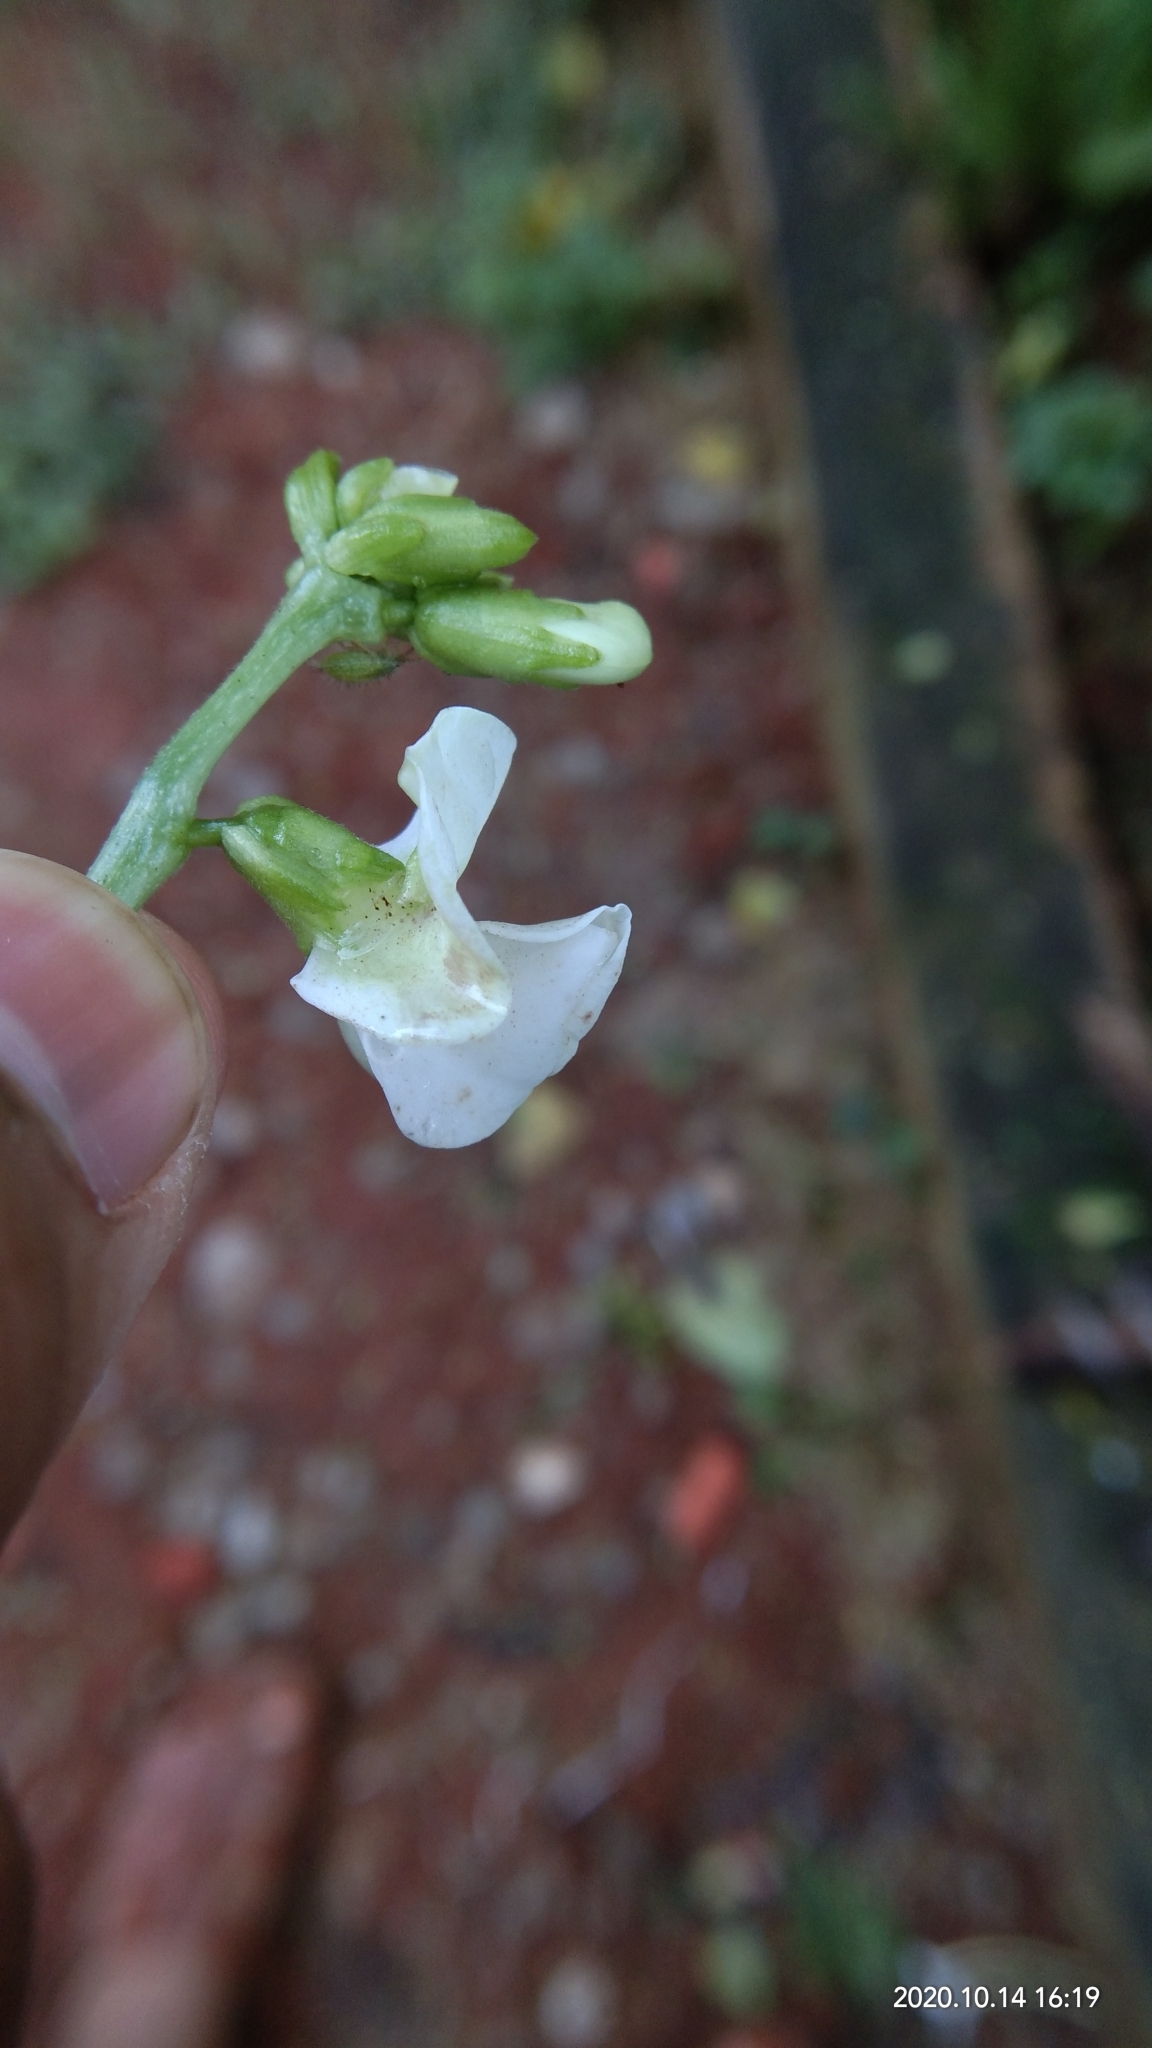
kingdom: Plantae
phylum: Tracheophyta
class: Magnoliopsida
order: Fabales
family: Fabaceae
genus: Phaseolus
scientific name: Phaseolus vulgaris
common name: Bean
